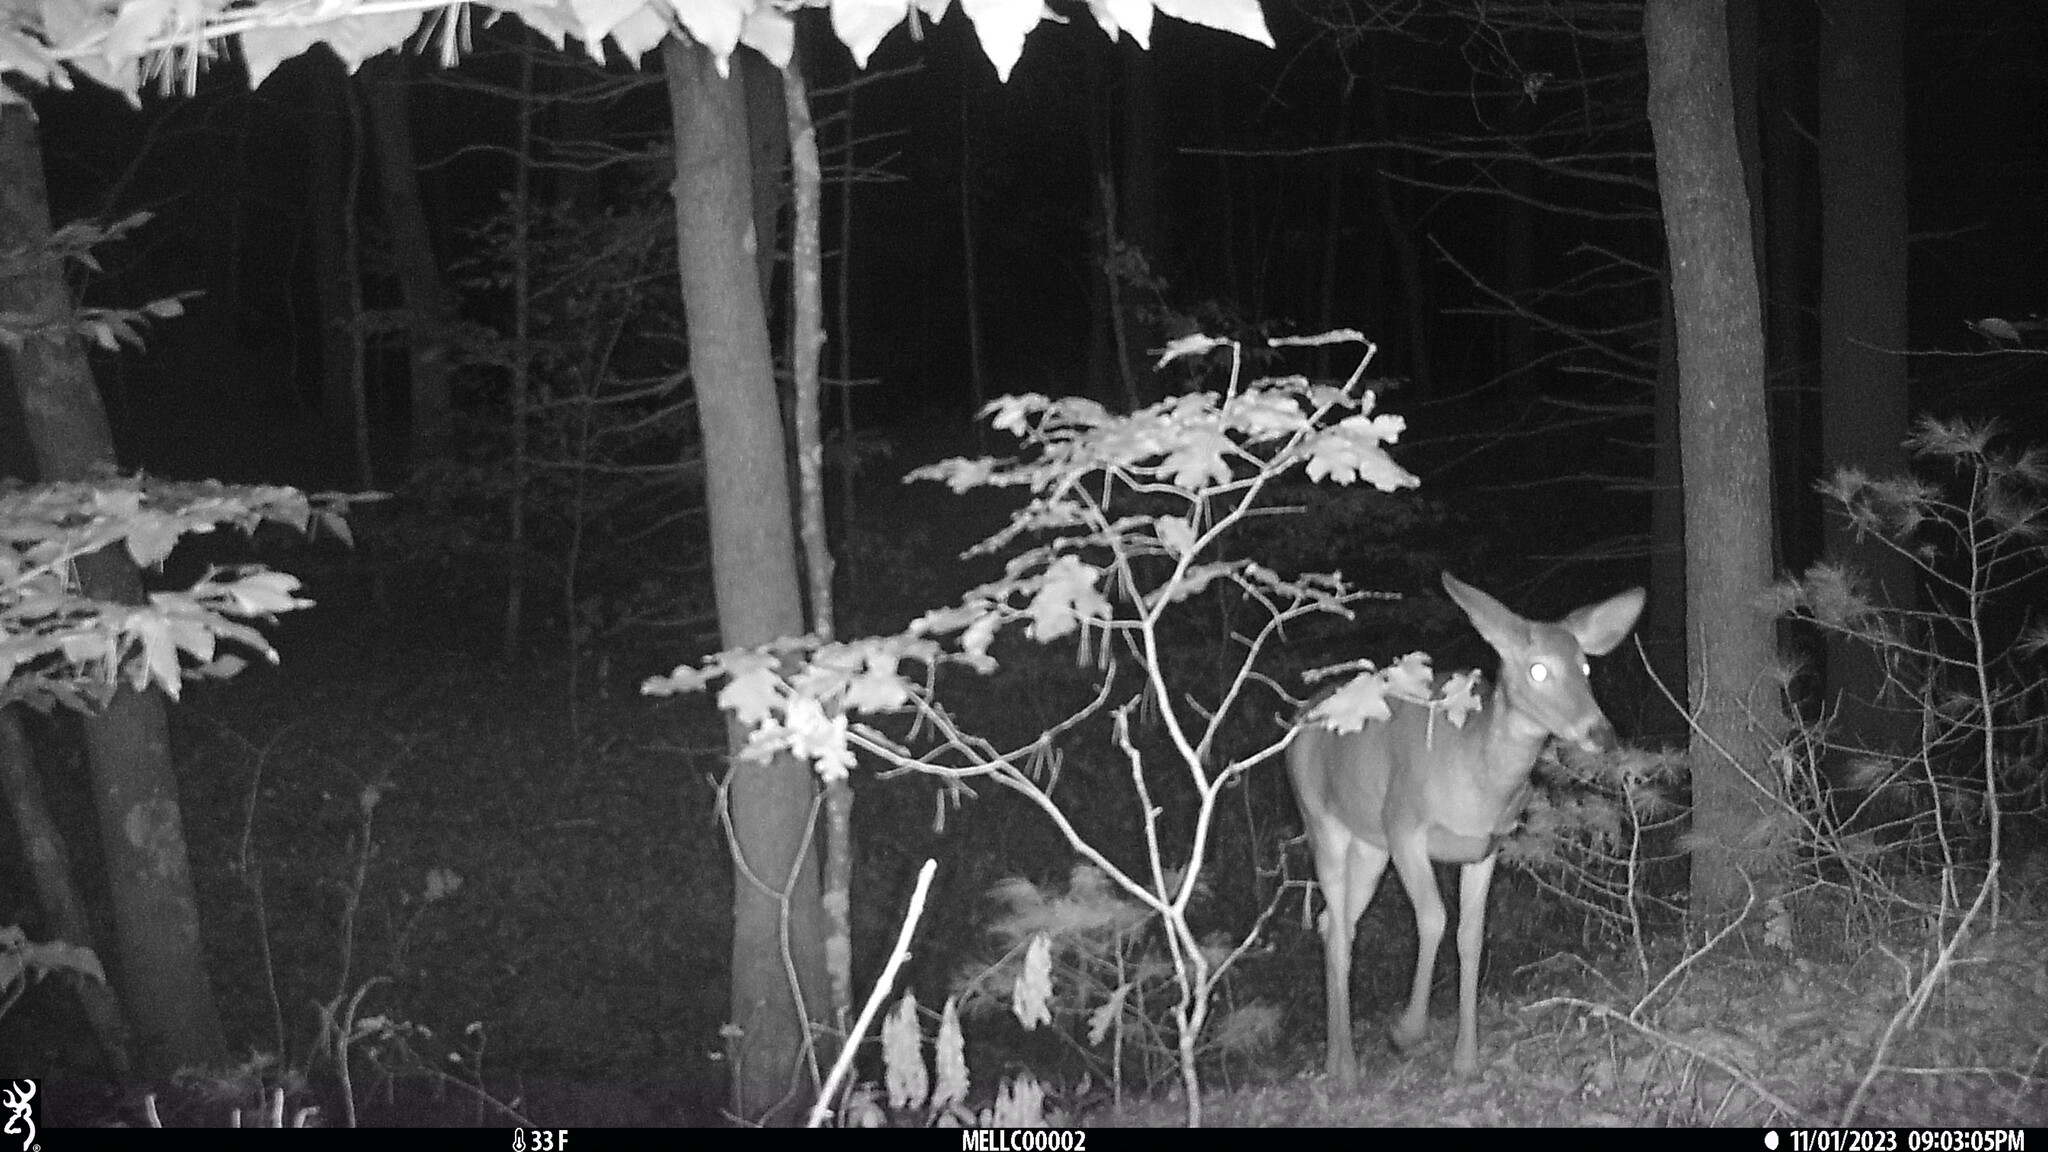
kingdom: Animalia
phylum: Chordata
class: Mammalia
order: Artiodactyla
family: Cervidae
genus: Odocoileus
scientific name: Odocoileus virginianus
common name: White-tailed deer
